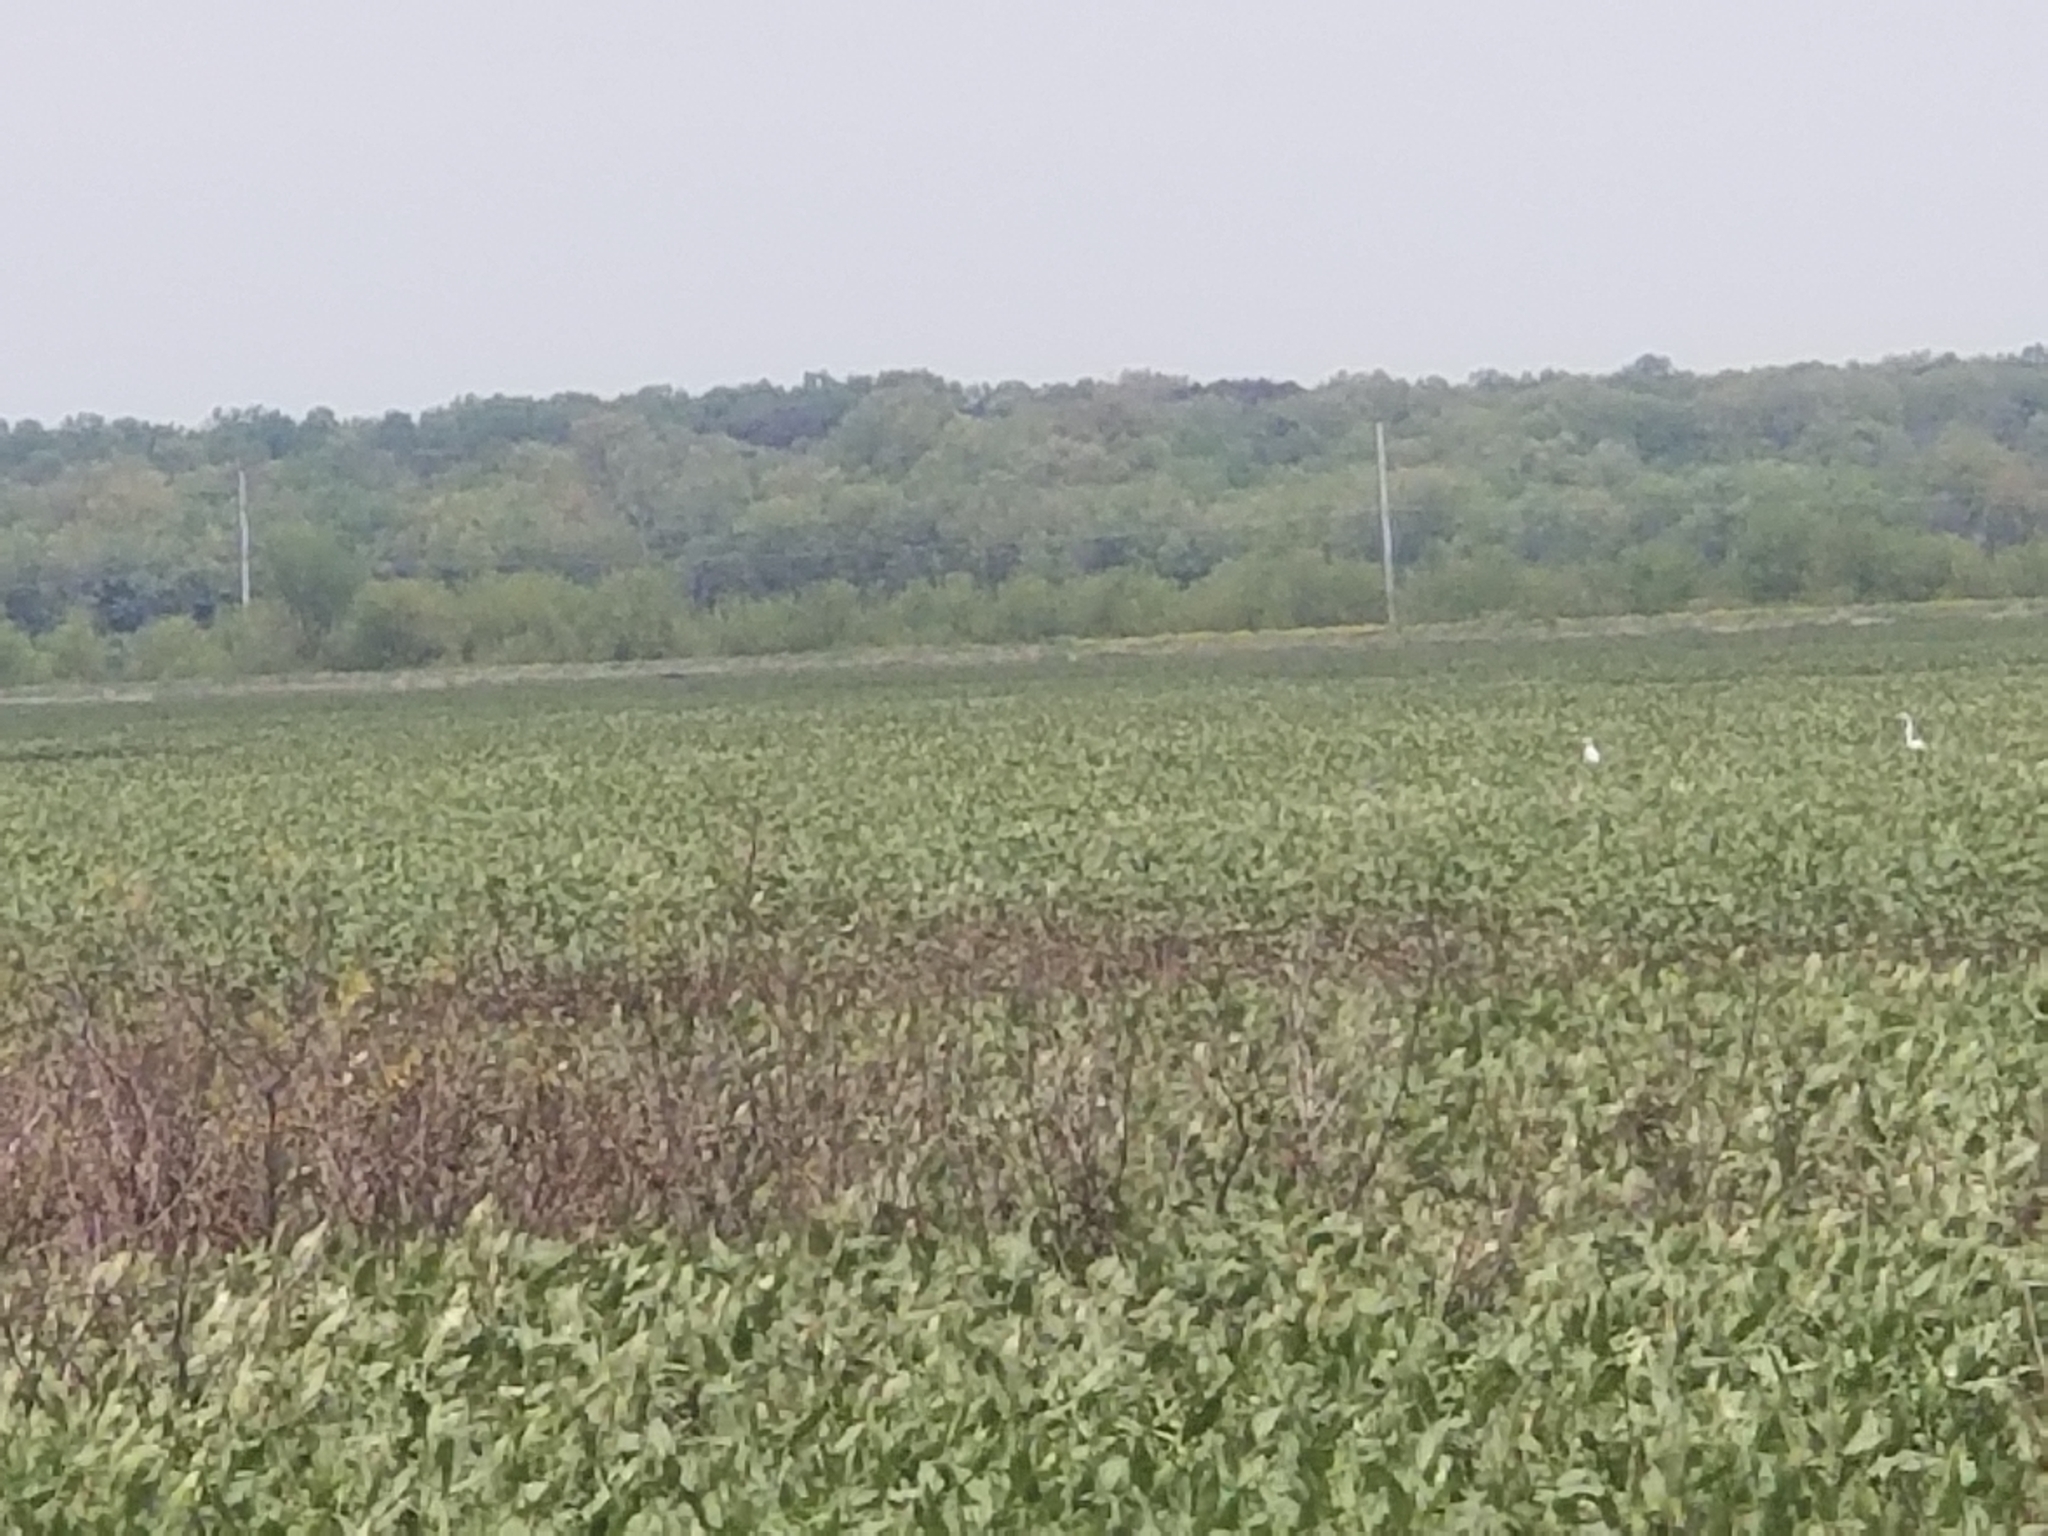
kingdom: Animalia
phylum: Chordata
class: Aves
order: Pelecaniformes
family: Ardeidae
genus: Ardea
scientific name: Ardea alba
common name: Great egret
